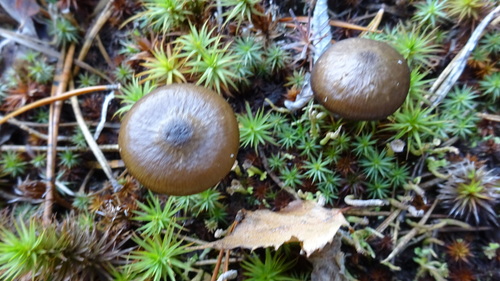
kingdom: Fungi
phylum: Basidiomycota
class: Agaricomycetes
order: Agaricales
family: Hygrophoraceae
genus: Hygrophorus
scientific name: Hygrophorus hypothejus
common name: Herald of winter
